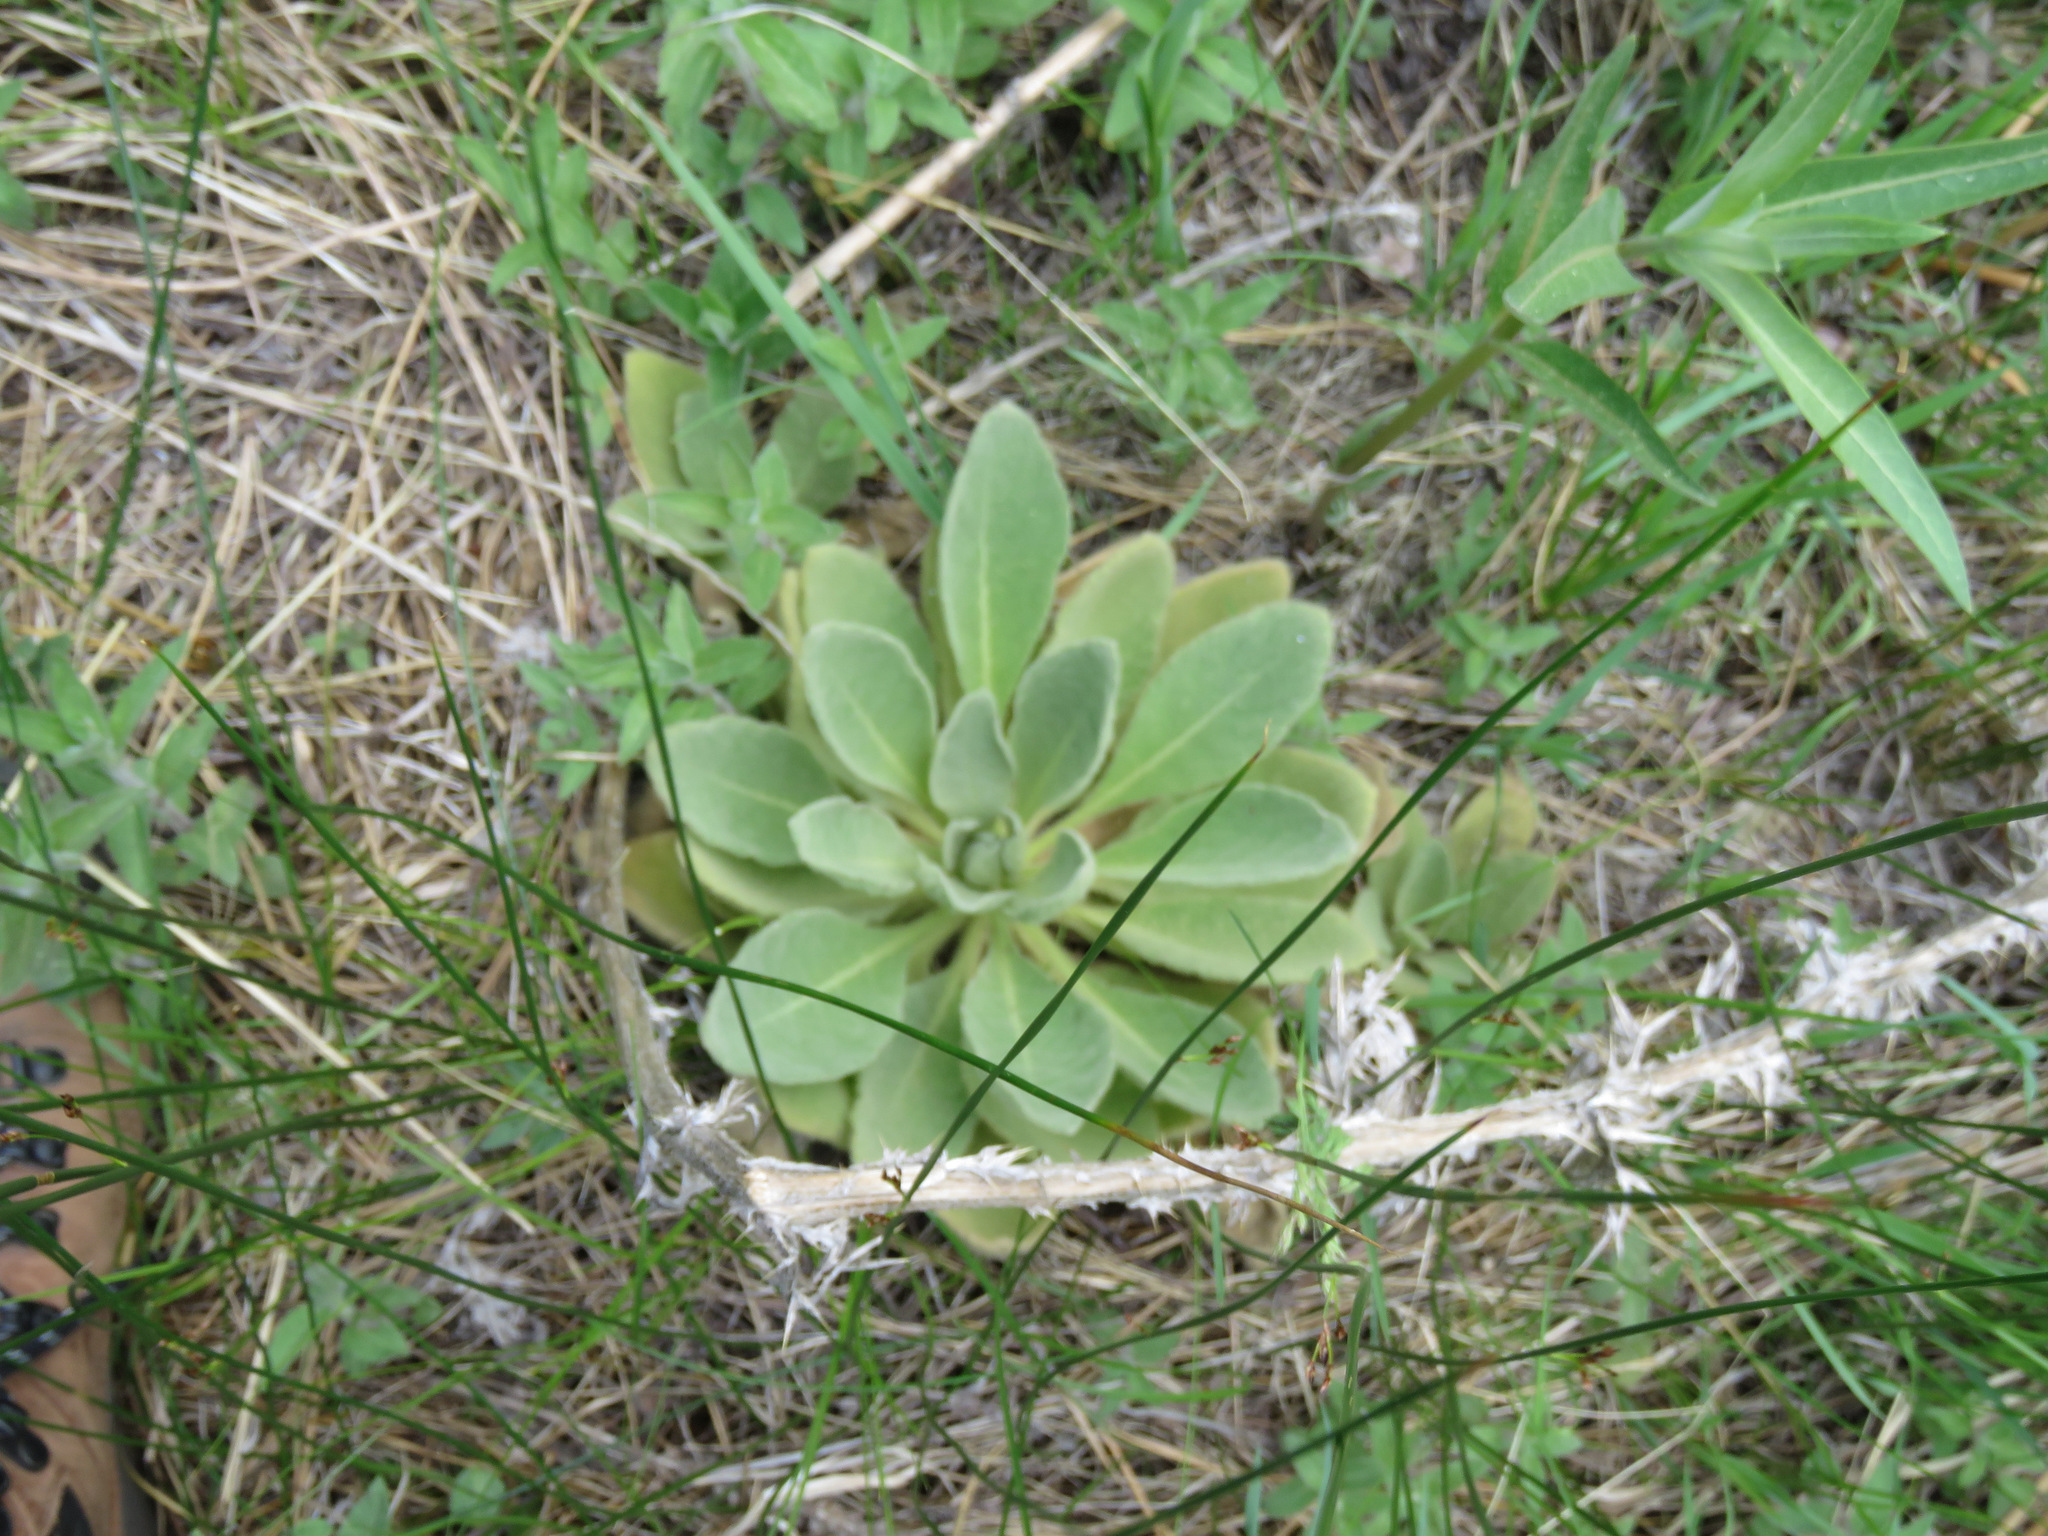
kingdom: Plantae
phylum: Tracheophyta
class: Magnoliopsida
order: Lamiales
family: Scrophulariaceae
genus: Verbascum
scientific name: Verbascum thapsus
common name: Common mullein
